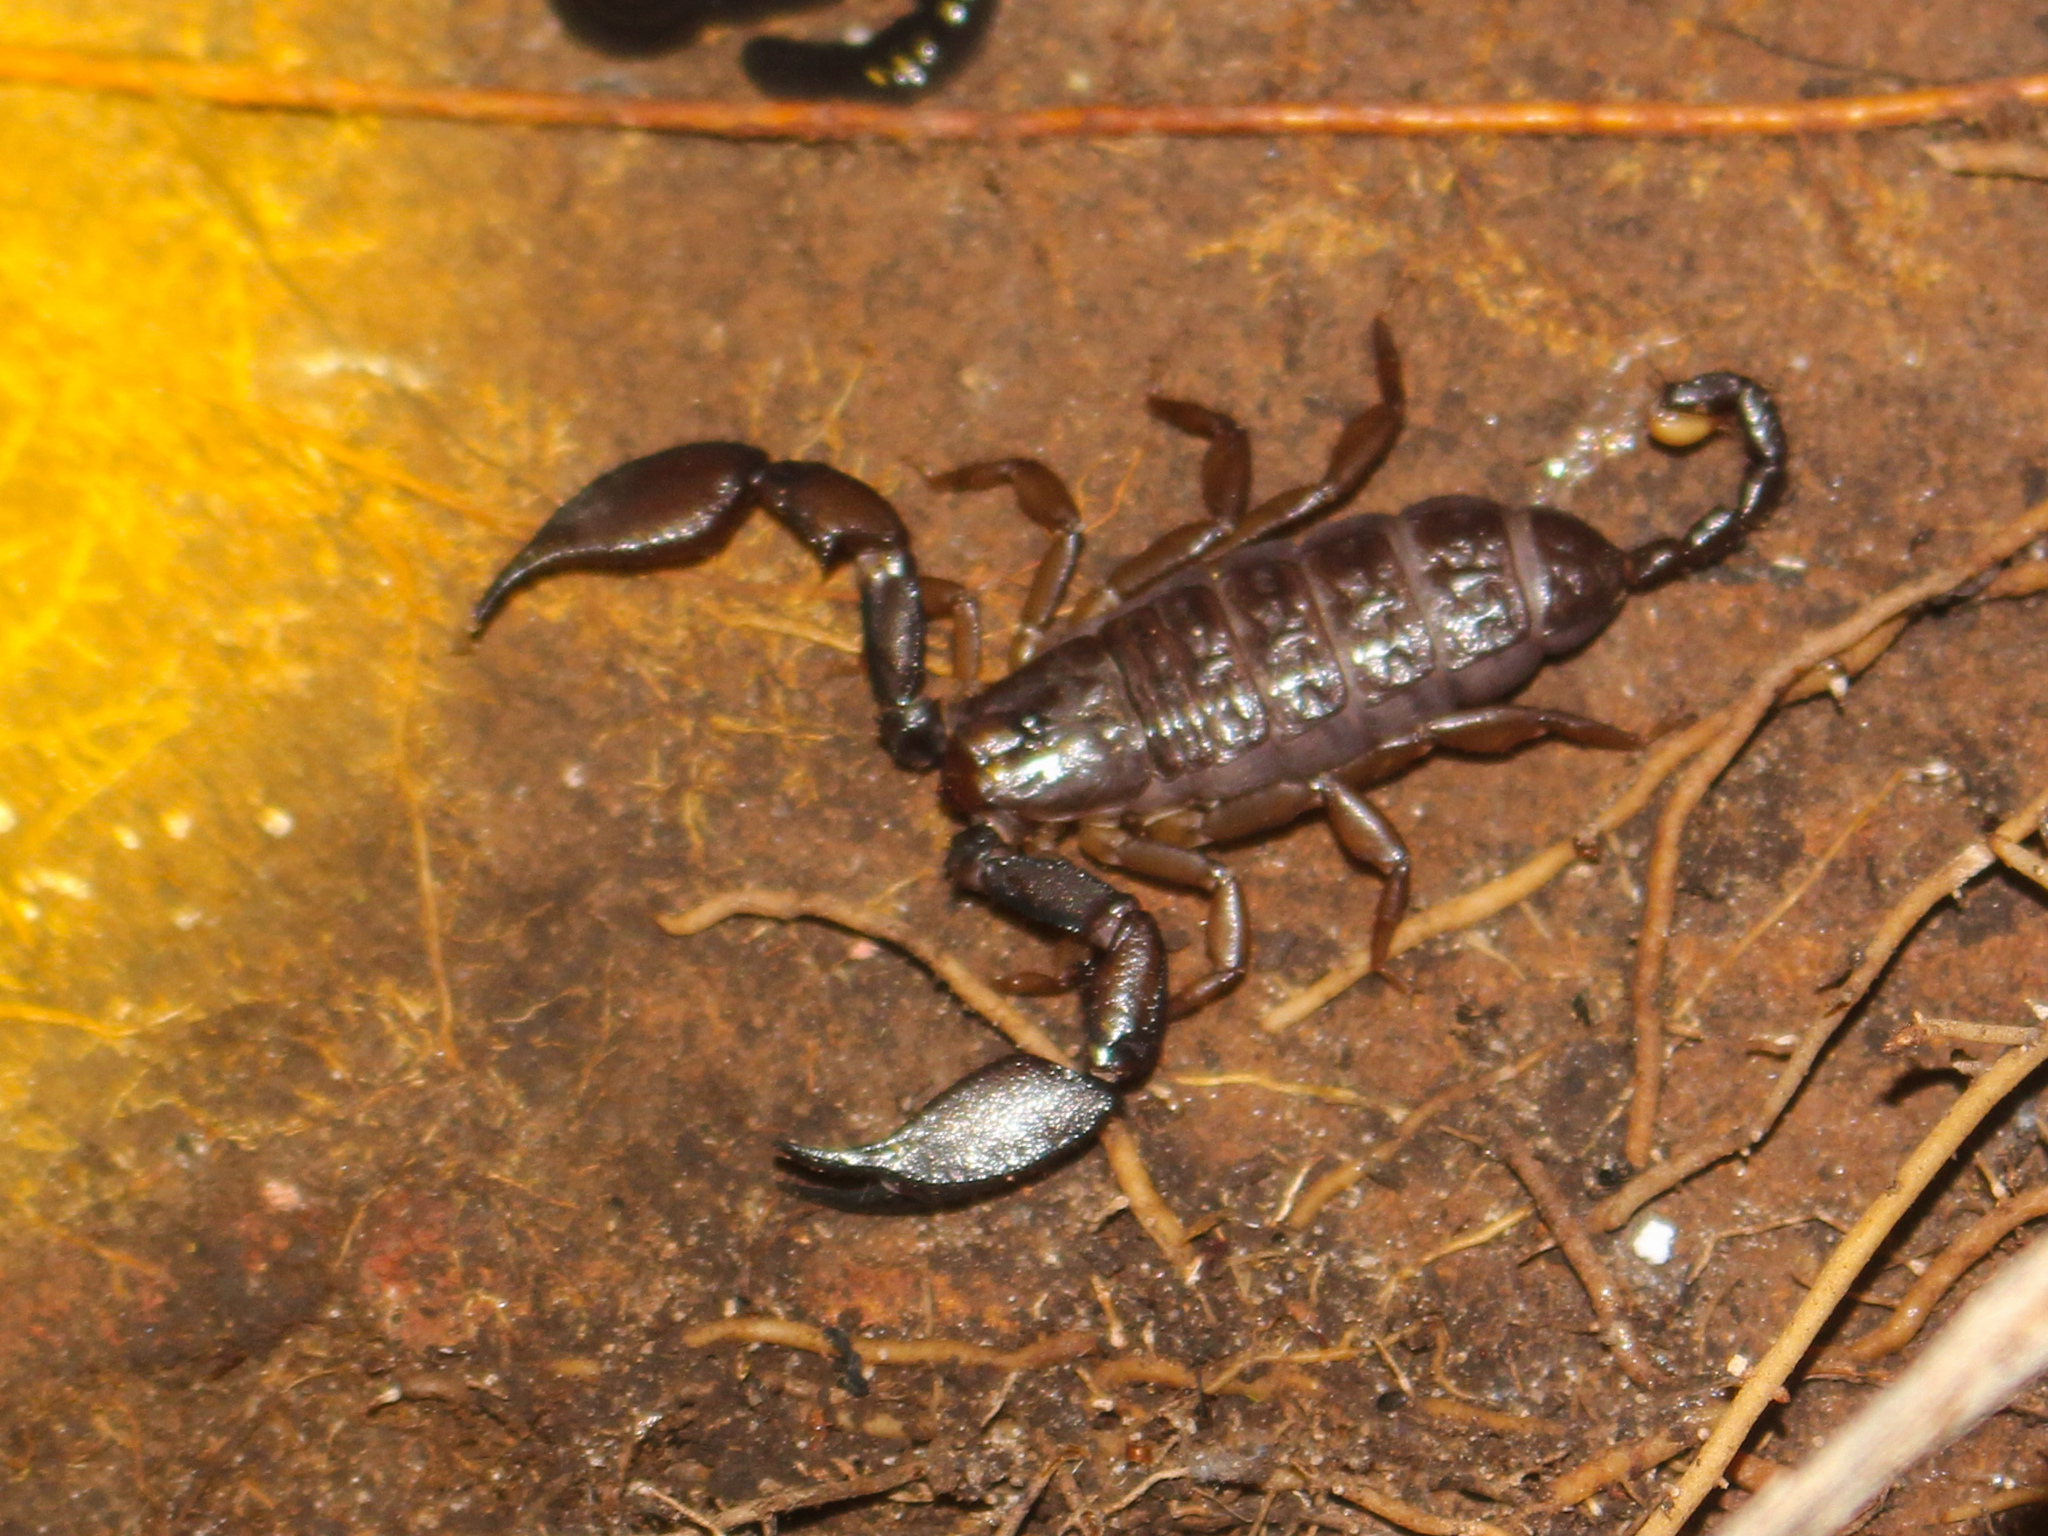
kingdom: Animalia
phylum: Arthropoda
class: Arachnida
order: Scorpiones
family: Hormuridae
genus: Liocheles
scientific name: Liocheles australasiae
